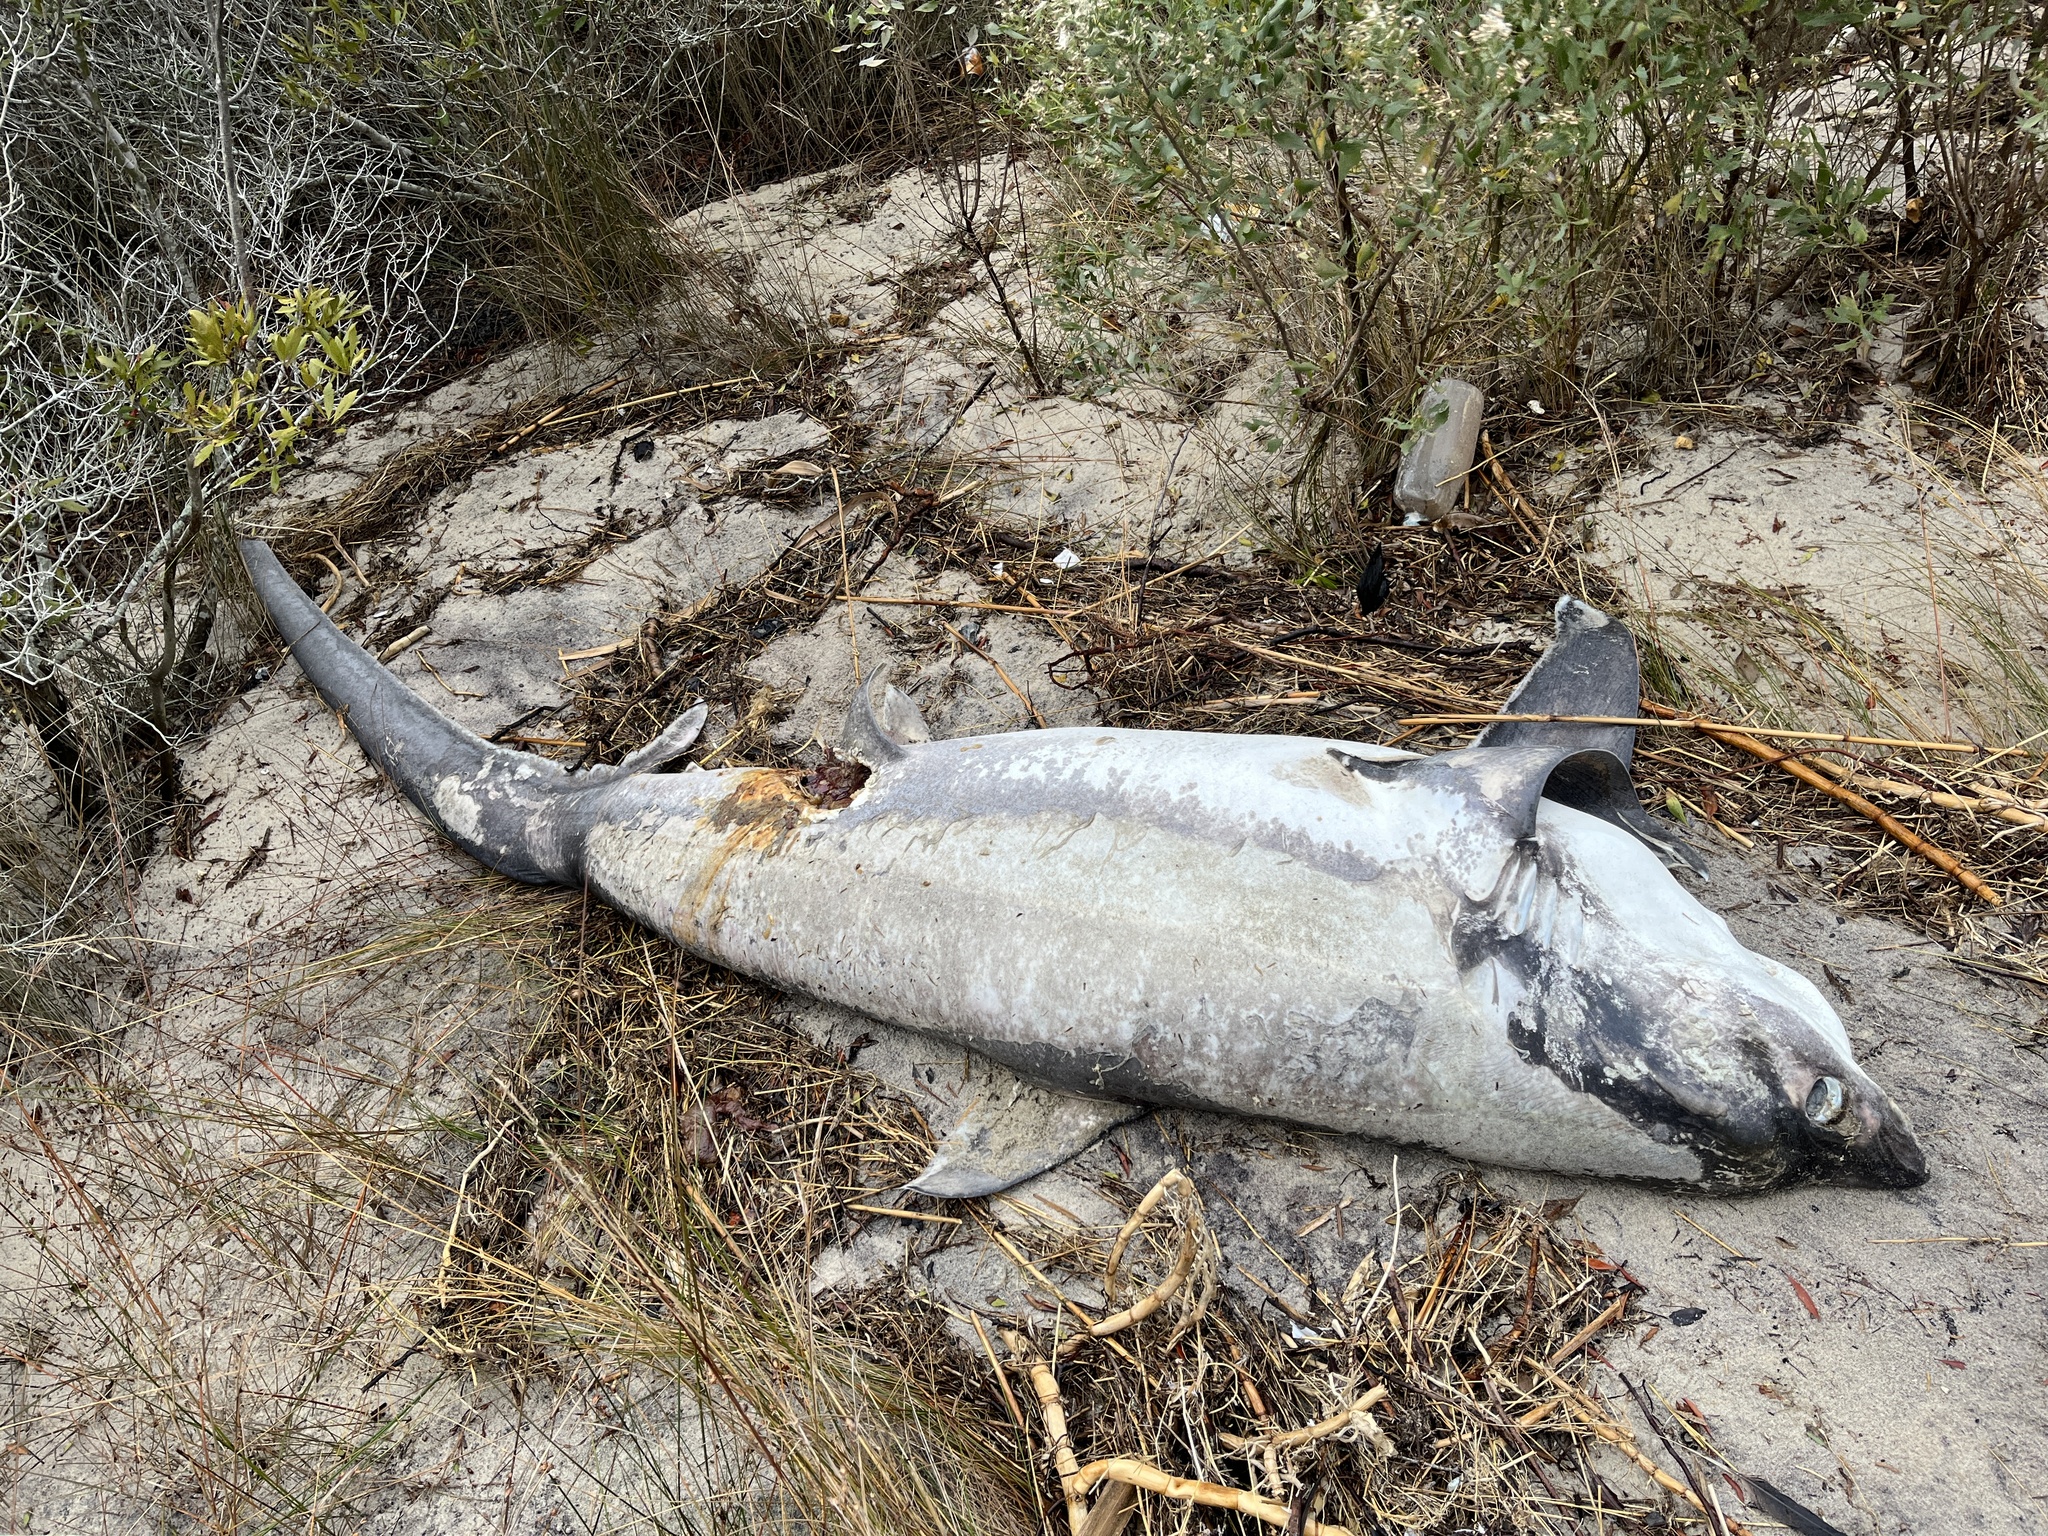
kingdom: Animalia
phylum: Chordata
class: Elasmobranchii
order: Lamniformes
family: Alopiidae
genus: Alopias
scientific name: Alopias vulpinus
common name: Thresher shark
